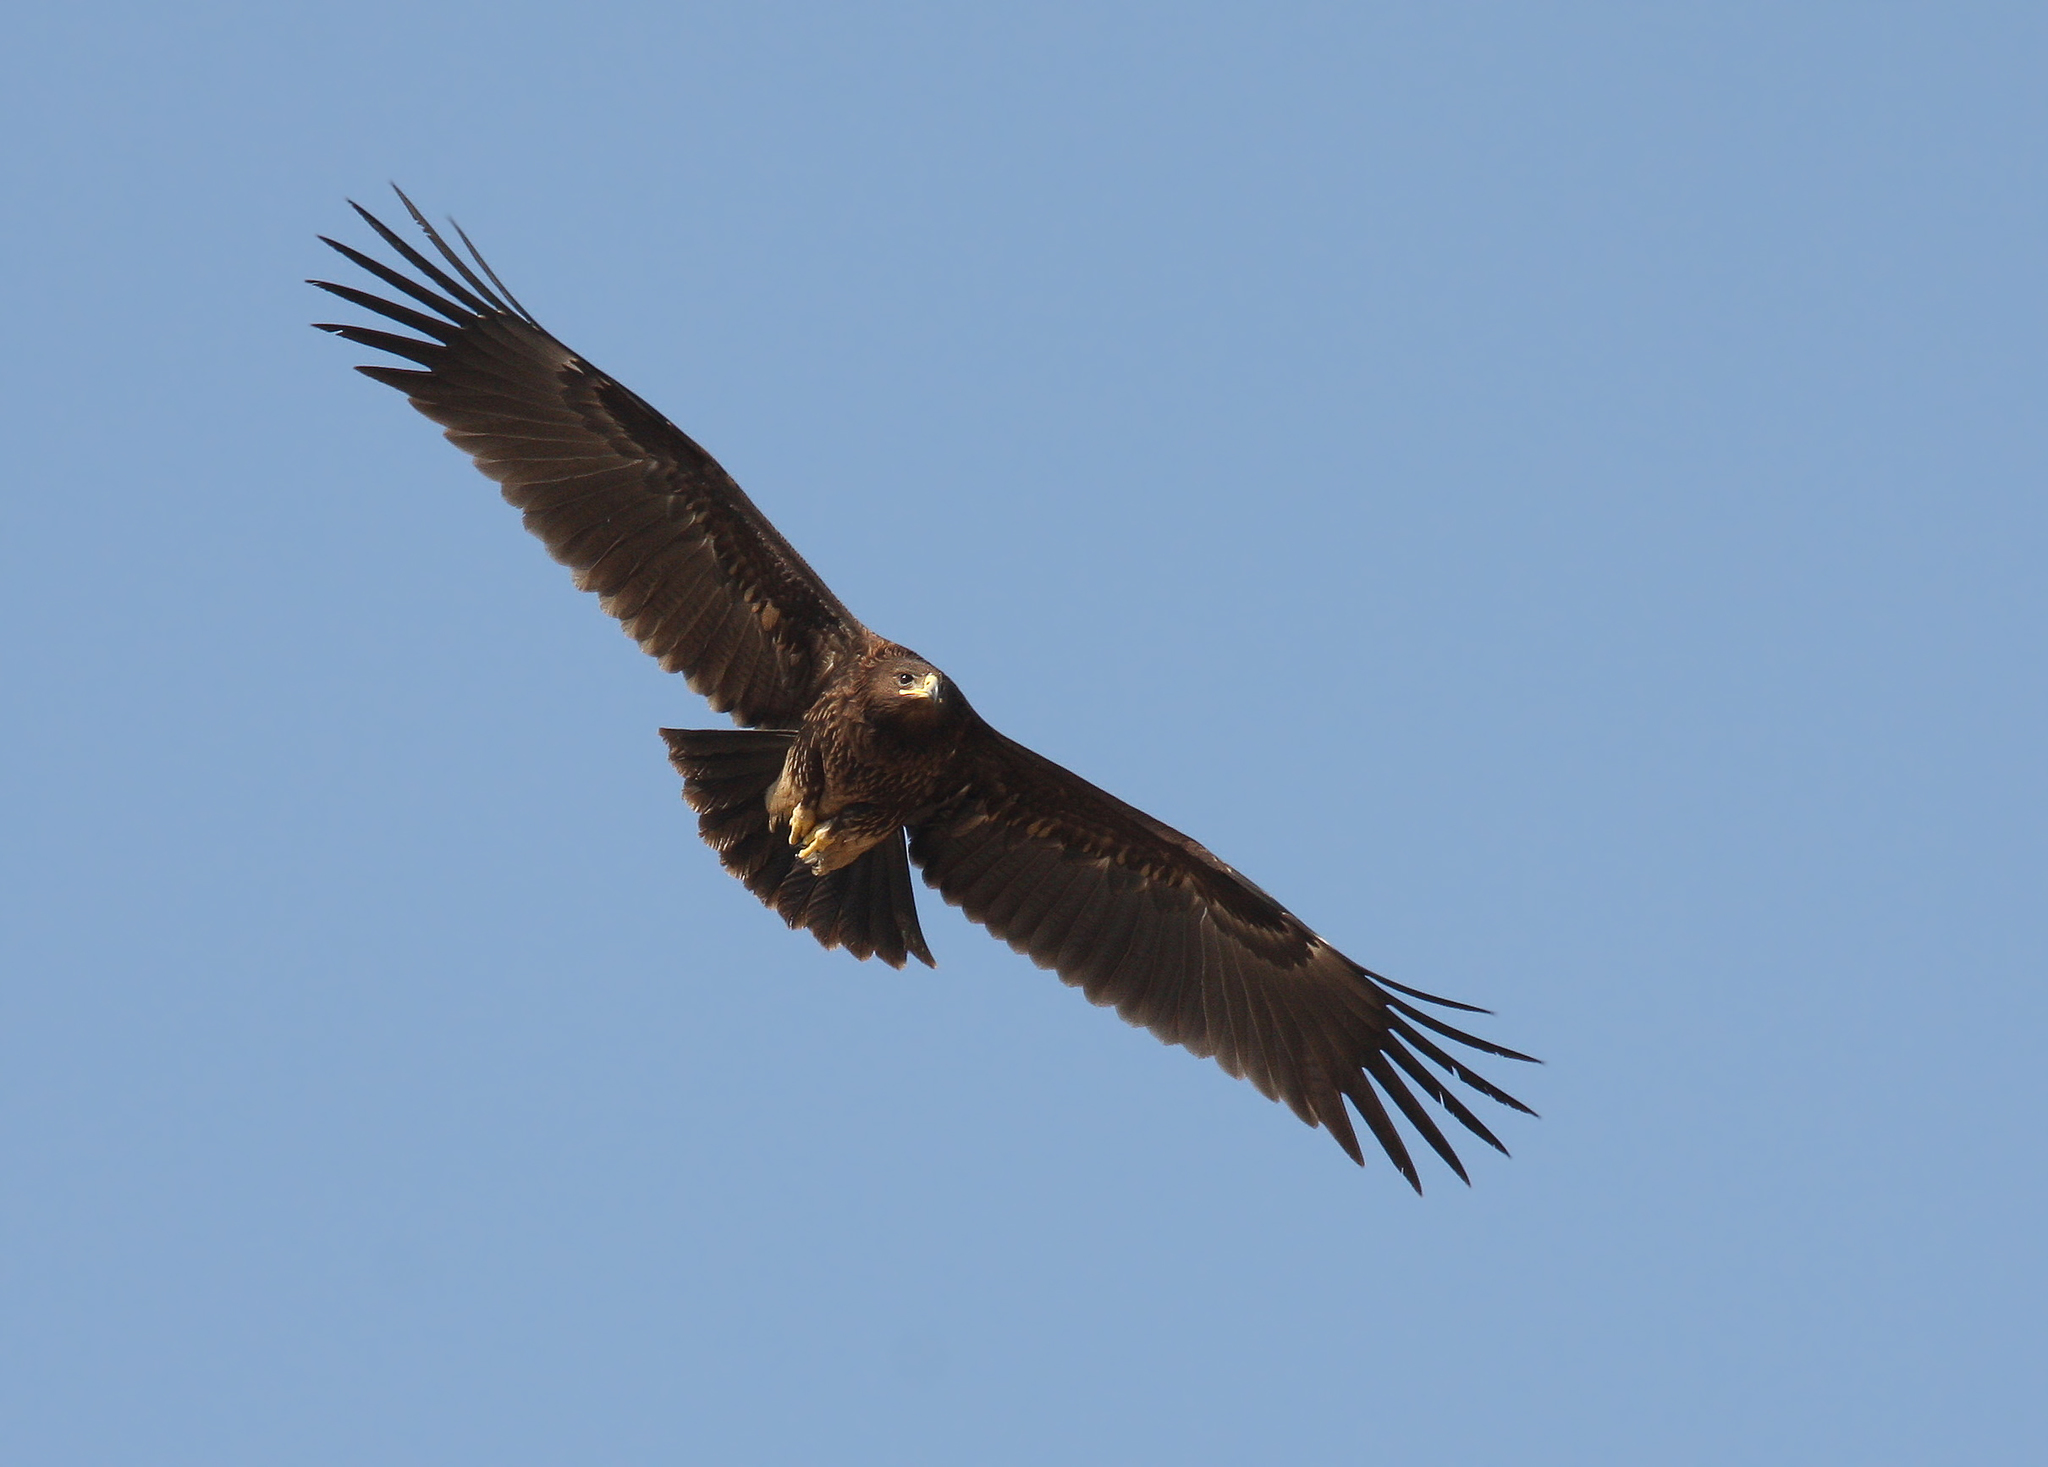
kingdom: Animalia
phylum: Chordata
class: Aves
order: Accipitriformes
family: Accipitridae
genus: Aquila
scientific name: Aquila clanga
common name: Greater spotted eagle
